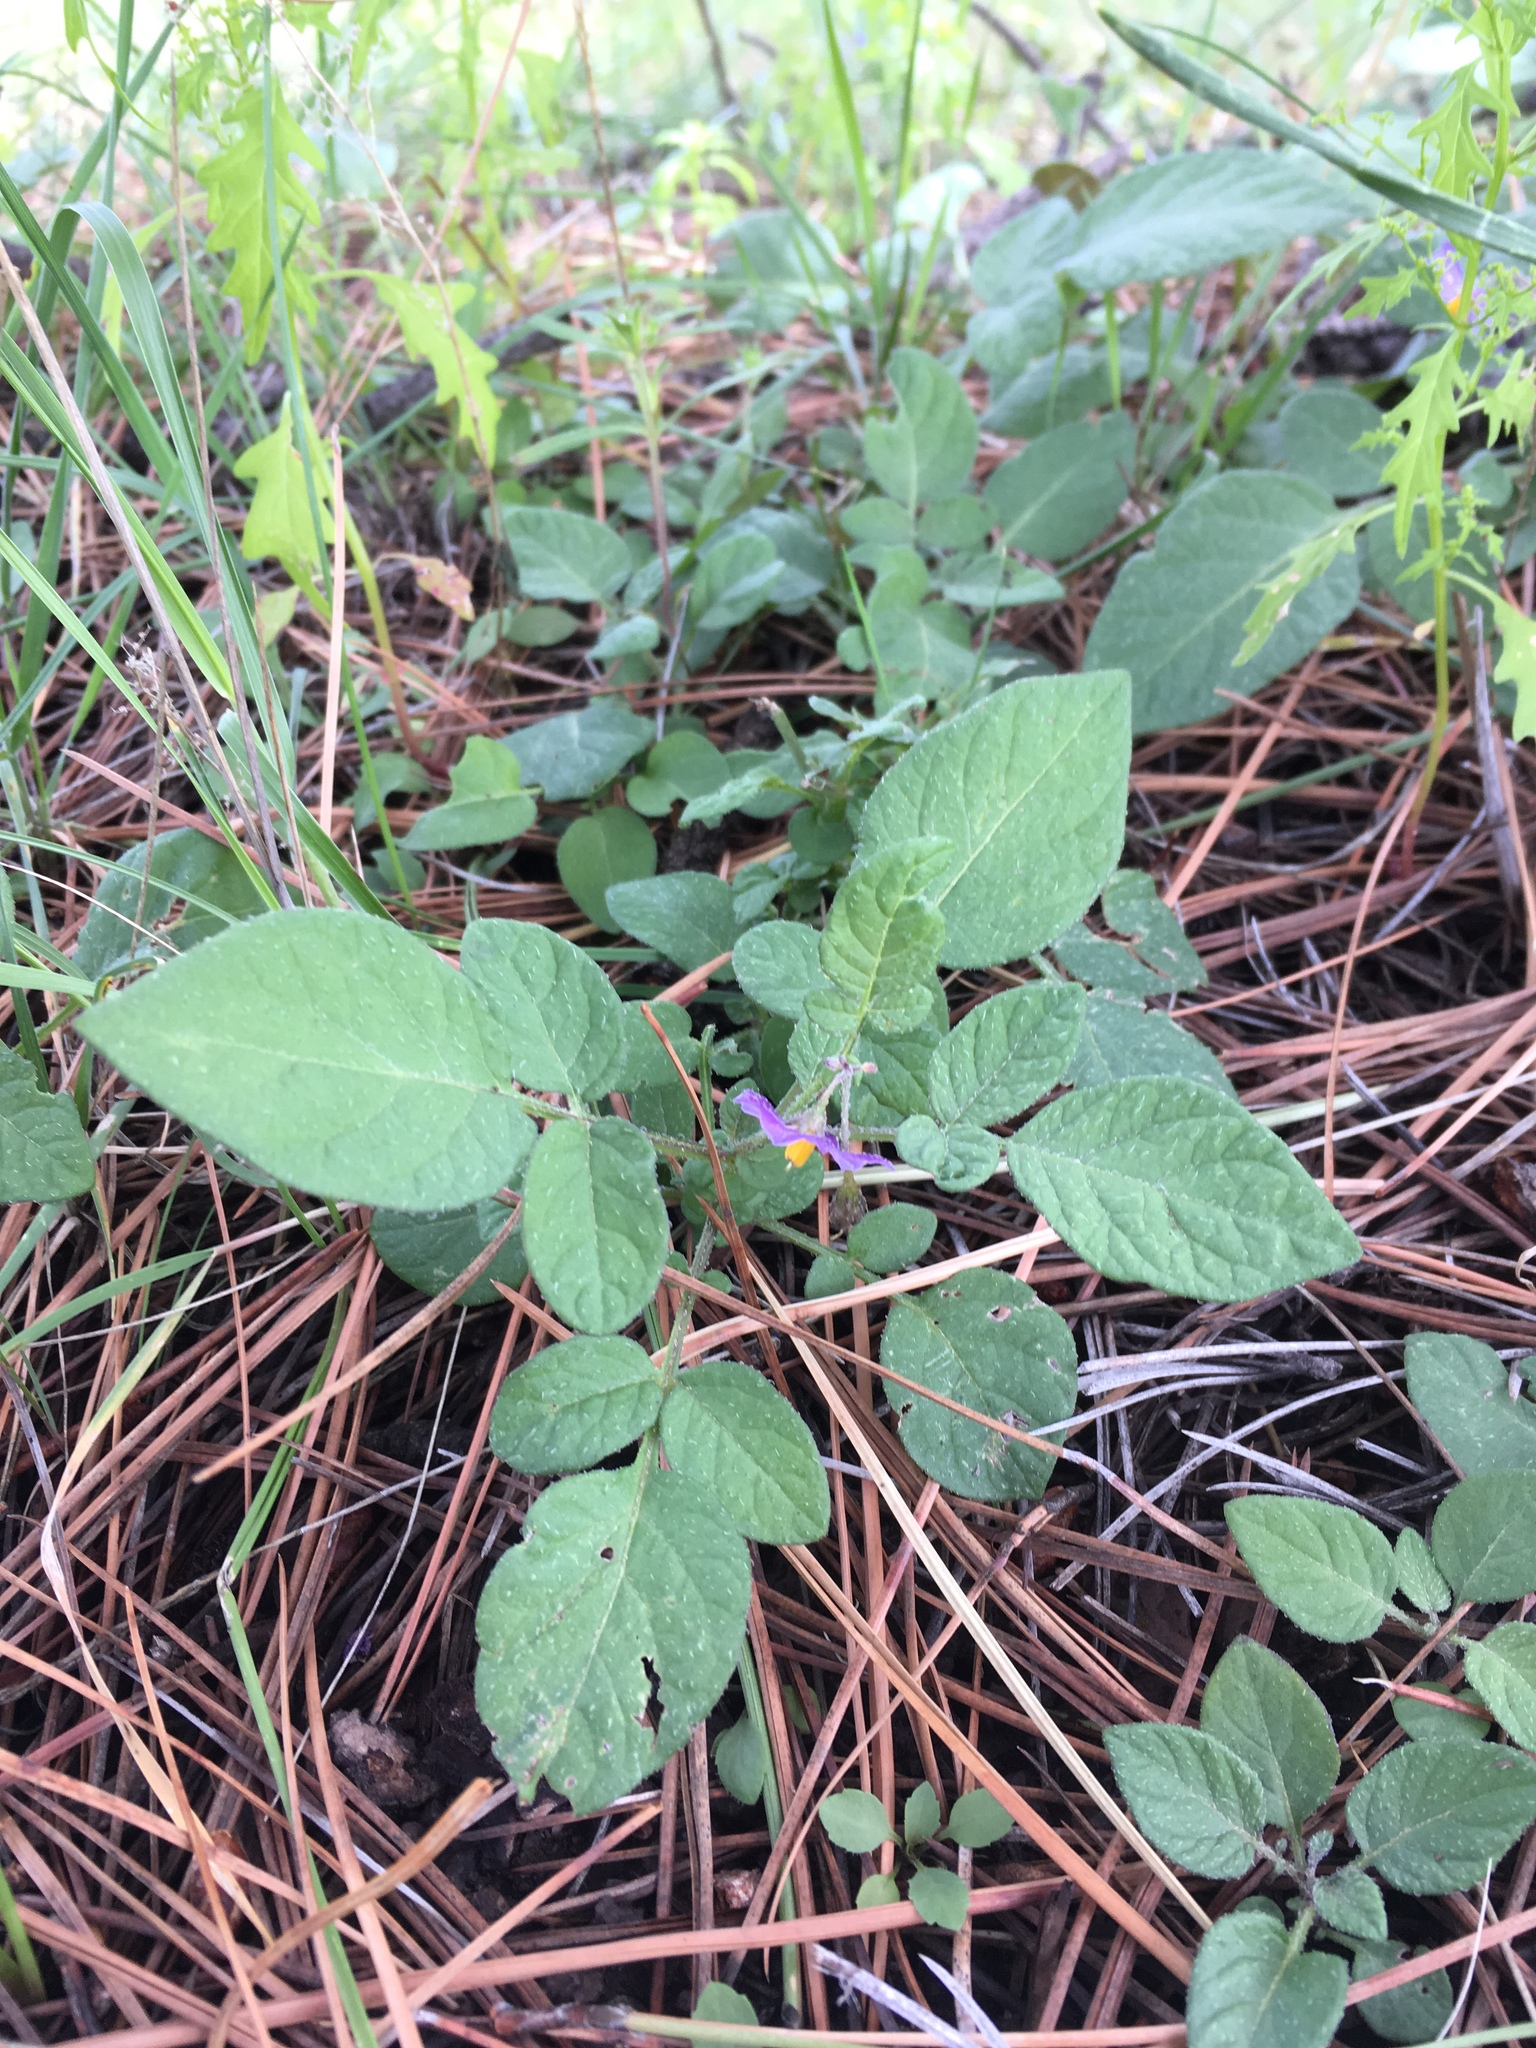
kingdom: Plantae
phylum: Tracheophyta
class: Magnoliopsida
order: Solanales
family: Solanaceae
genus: Solanum
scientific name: Solanum stoloniferum
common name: Fendler's nighshade
